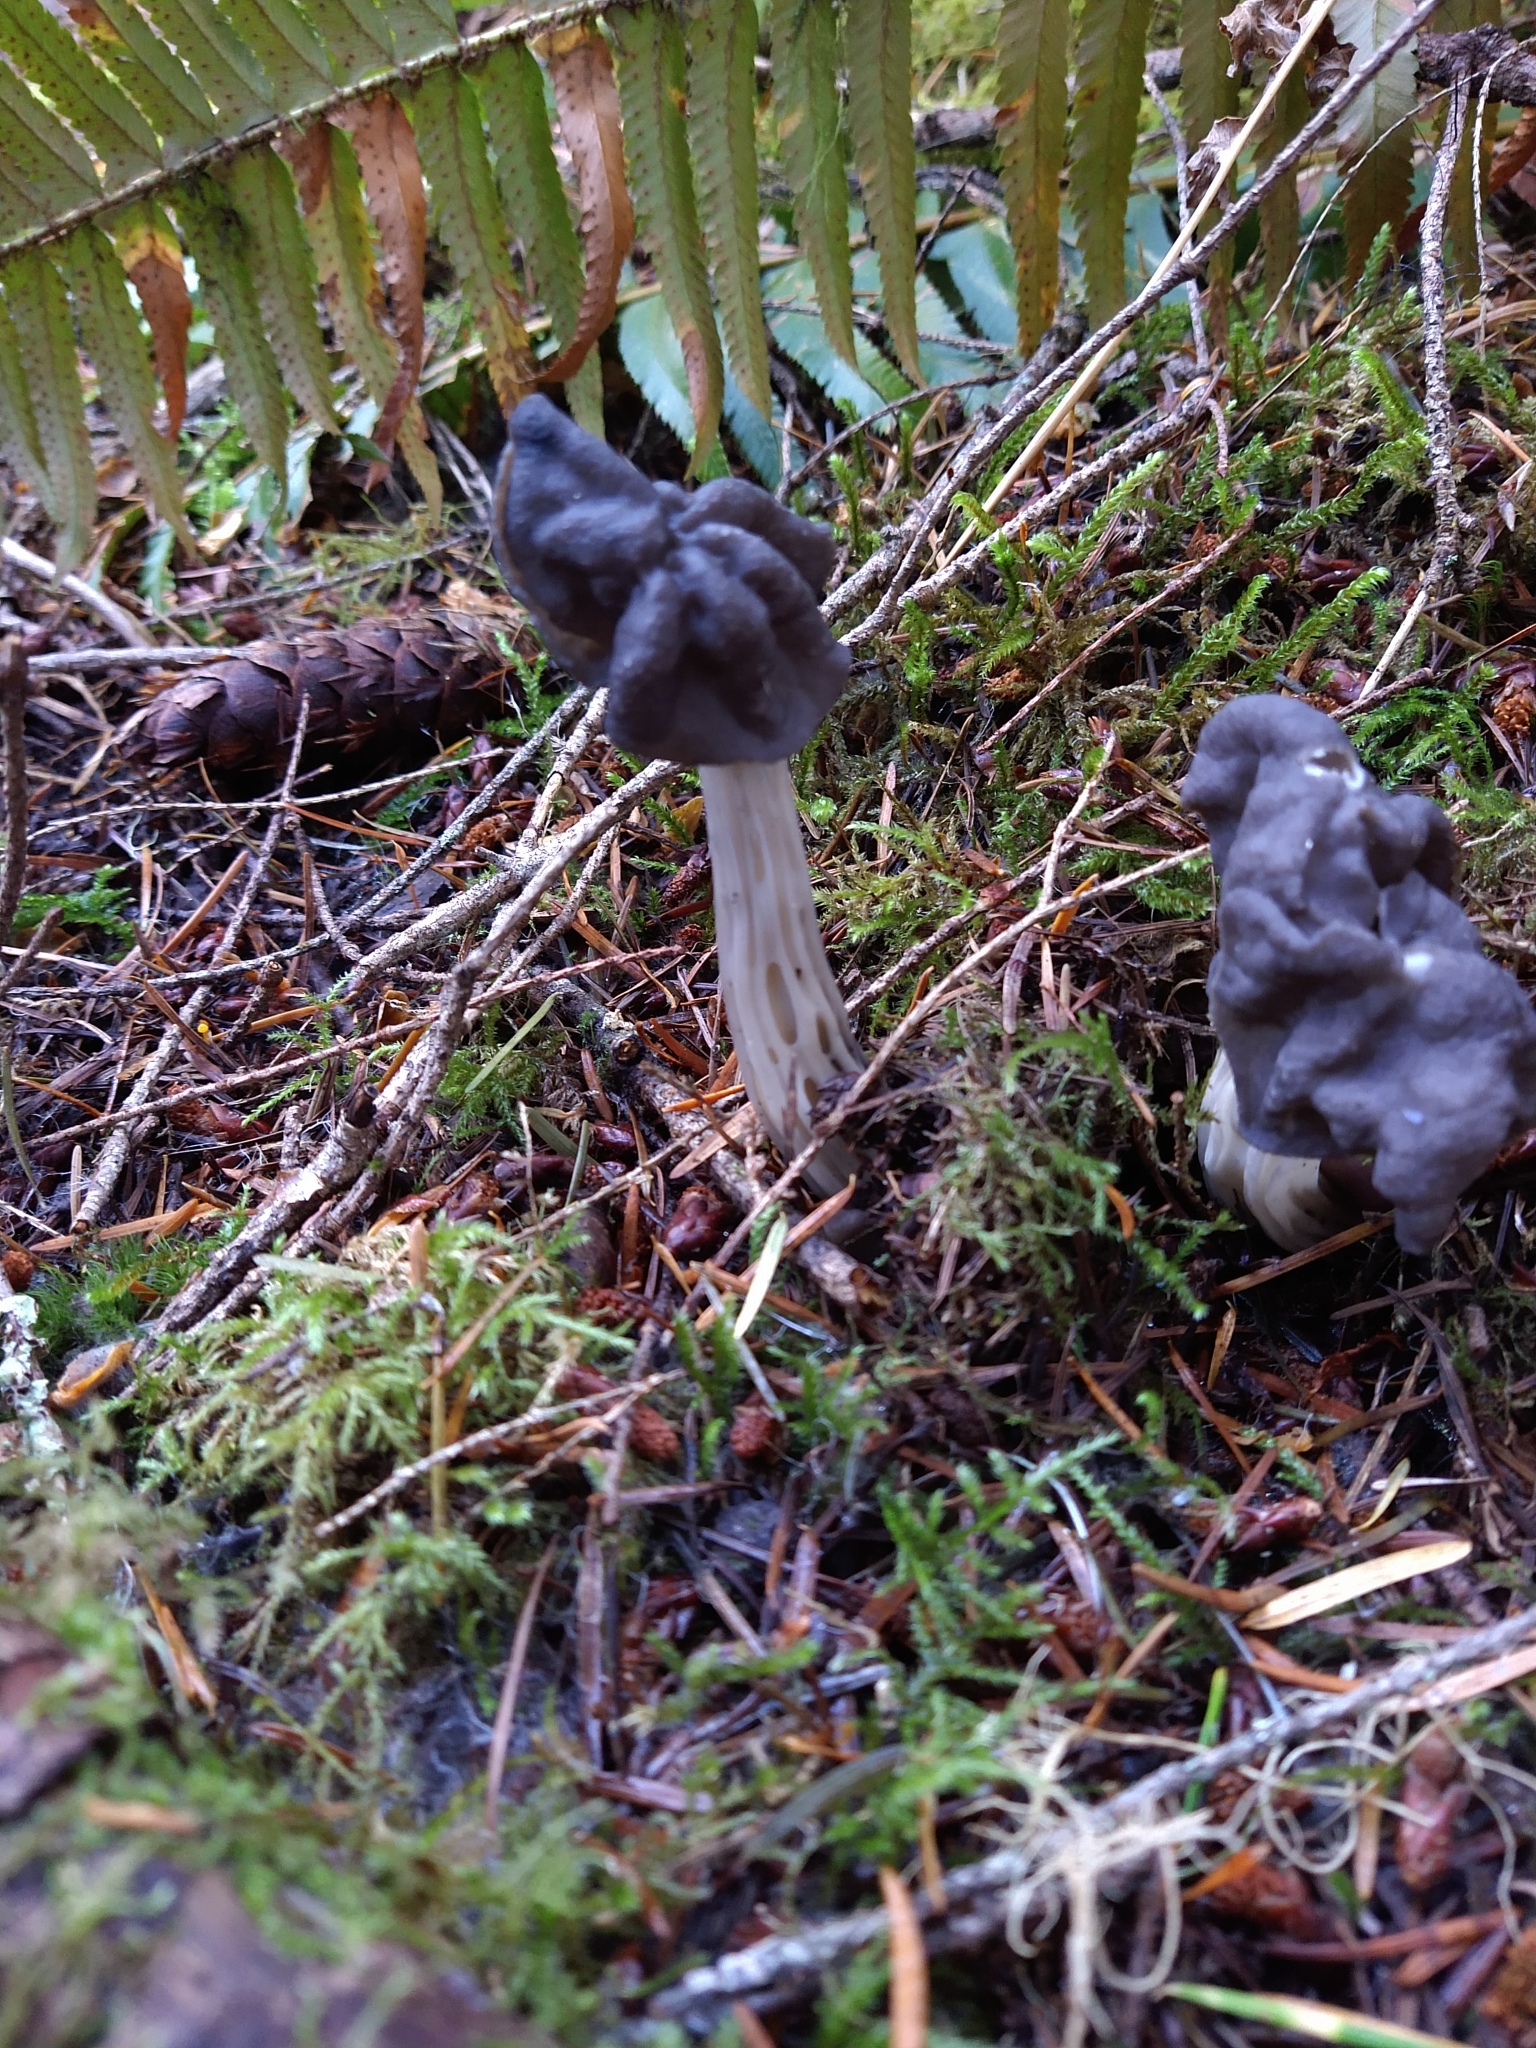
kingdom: Fungi
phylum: Ascomycota
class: Pezizomycetes
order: Pezizales
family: Helvellaceae
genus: Helvella
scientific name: Helvella vespertina
